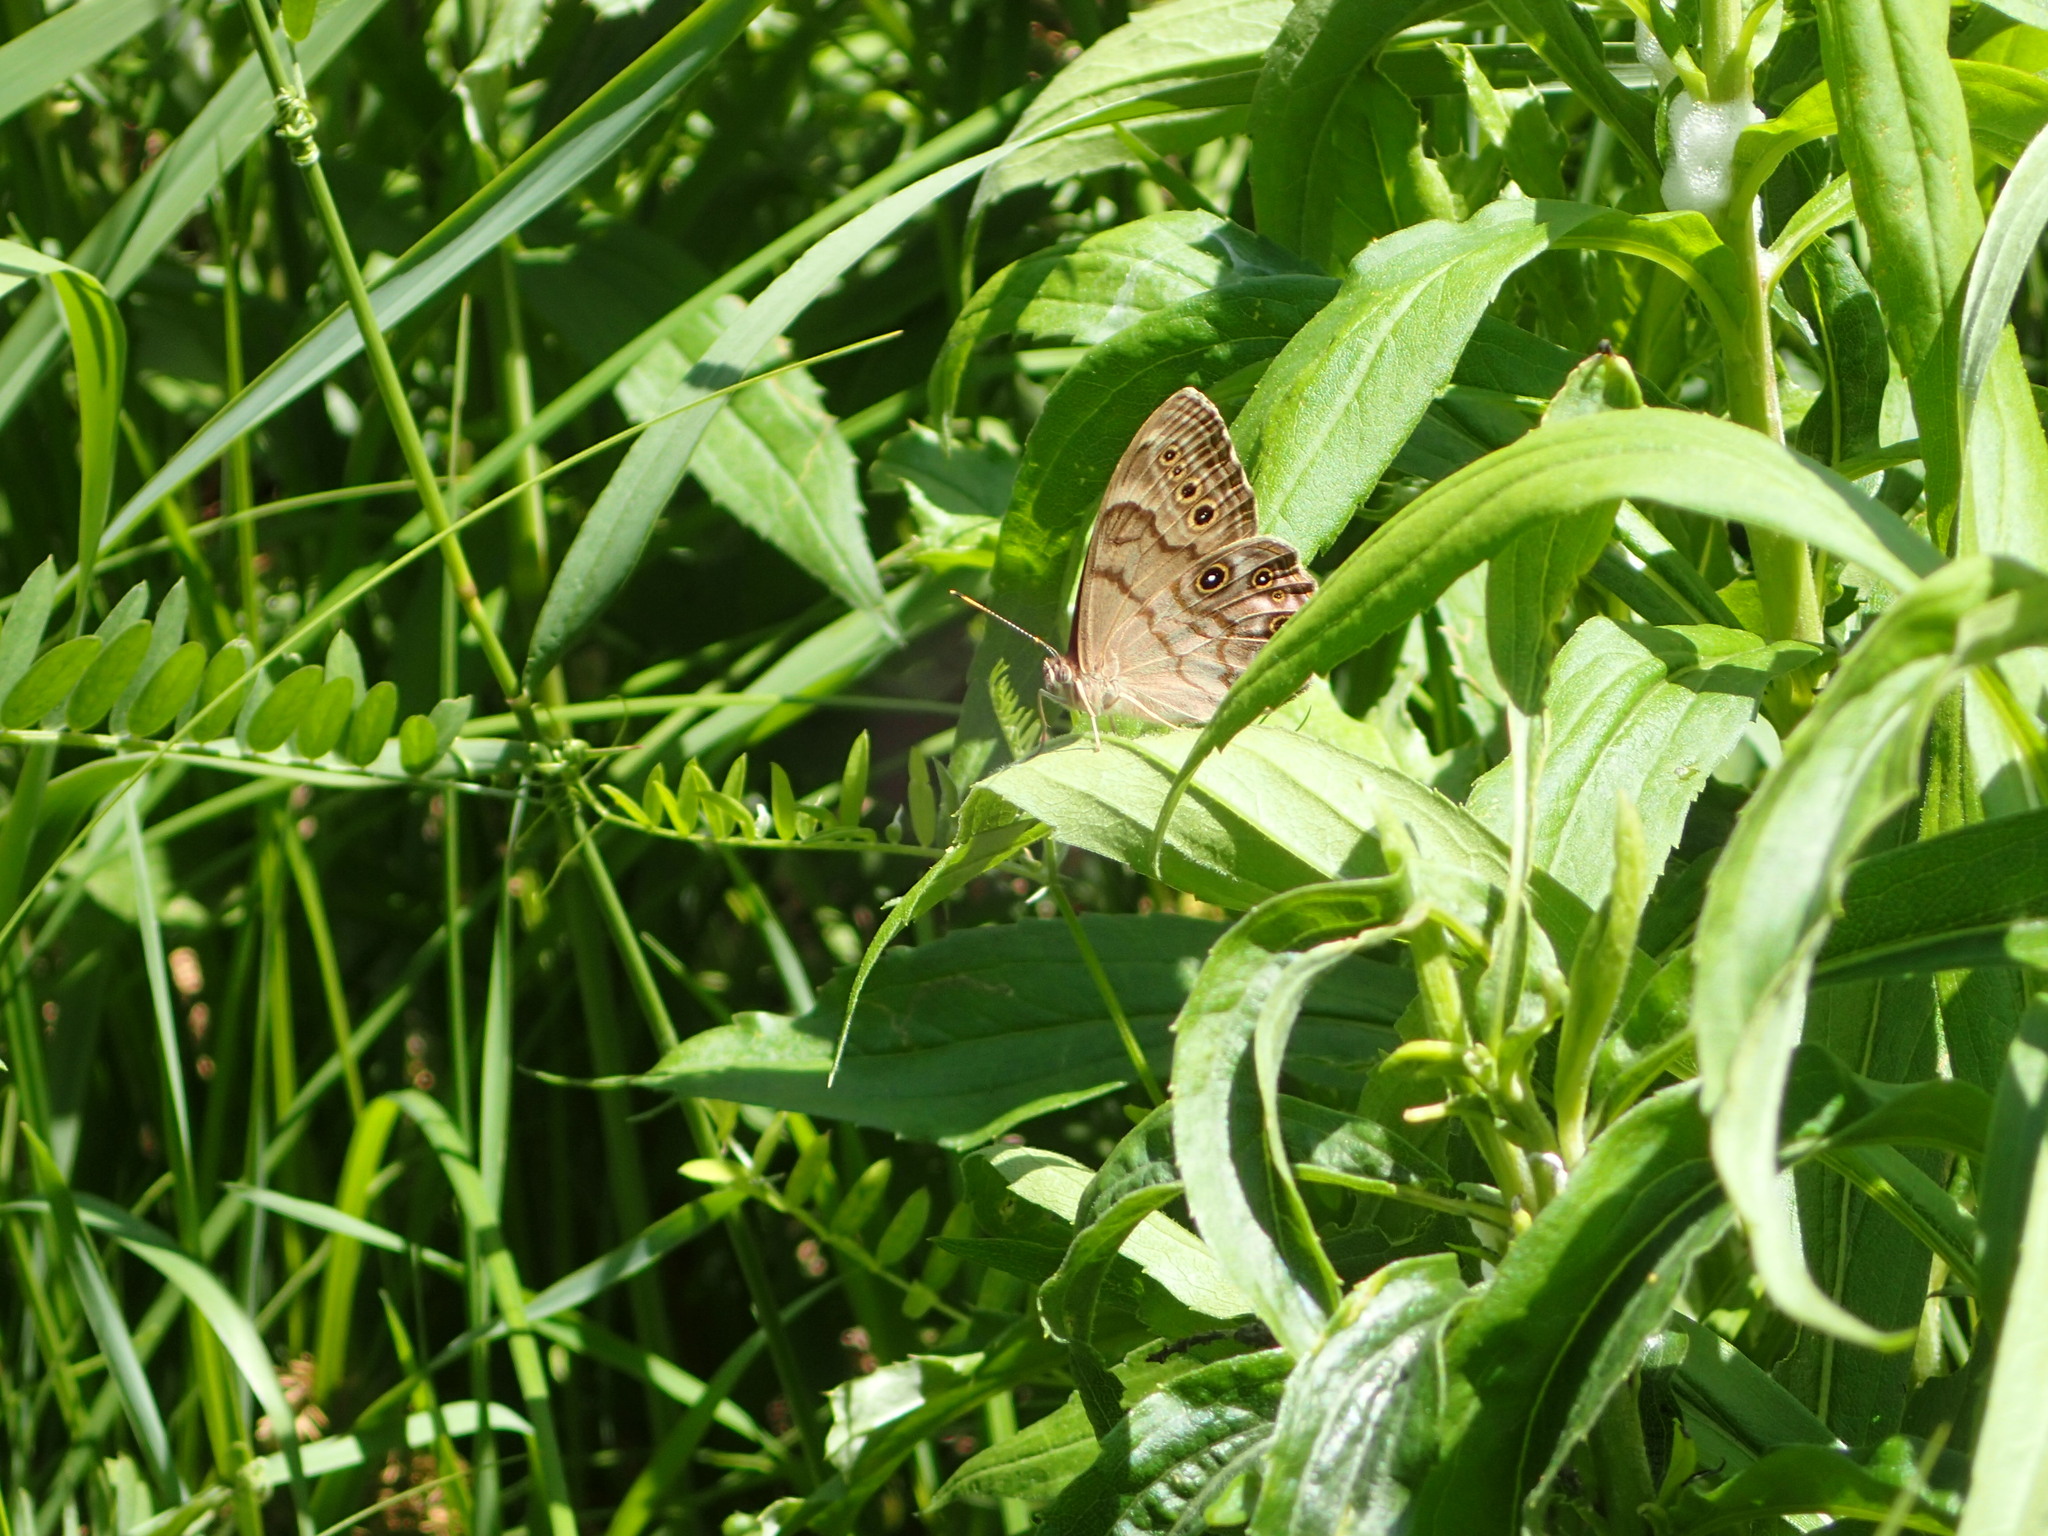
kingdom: Animalia
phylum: Arthropoda
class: Insecta
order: Lepidoptera
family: Nymphalidae
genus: Lethe
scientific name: Lethe anthedon
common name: Northern pearly-eye
